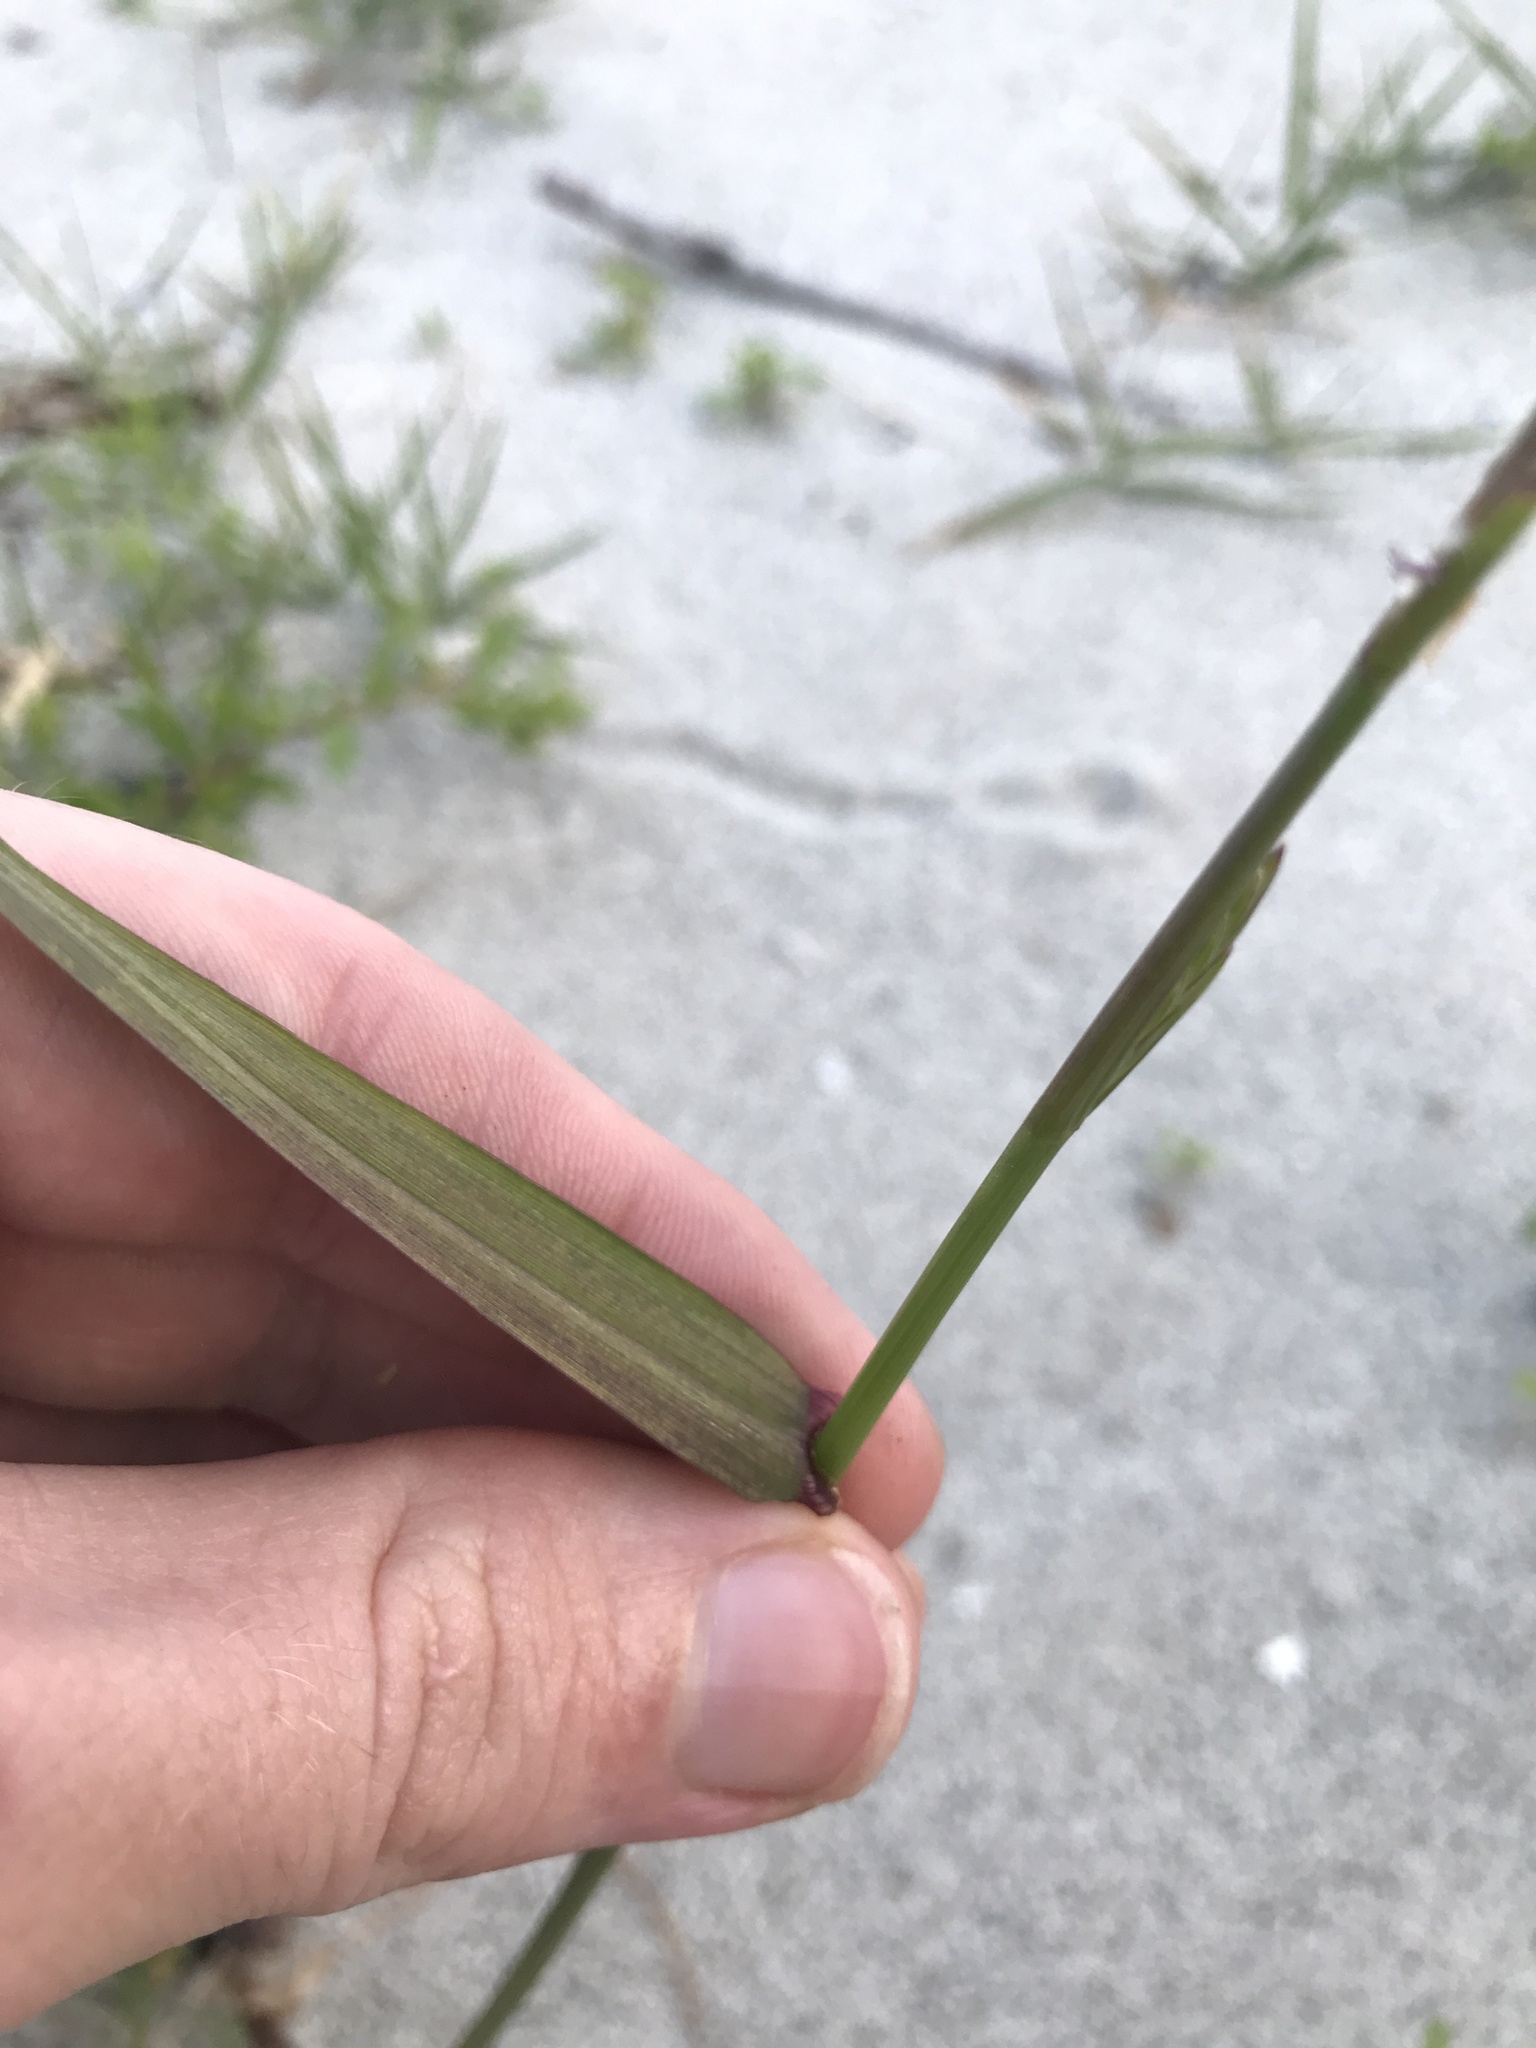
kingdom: Plantae
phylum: Tracheophyta
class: Liliopsida
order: Poales
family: Poaceae
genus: Lolium
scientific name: Lolium perenne
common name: Perennial ryegrass
